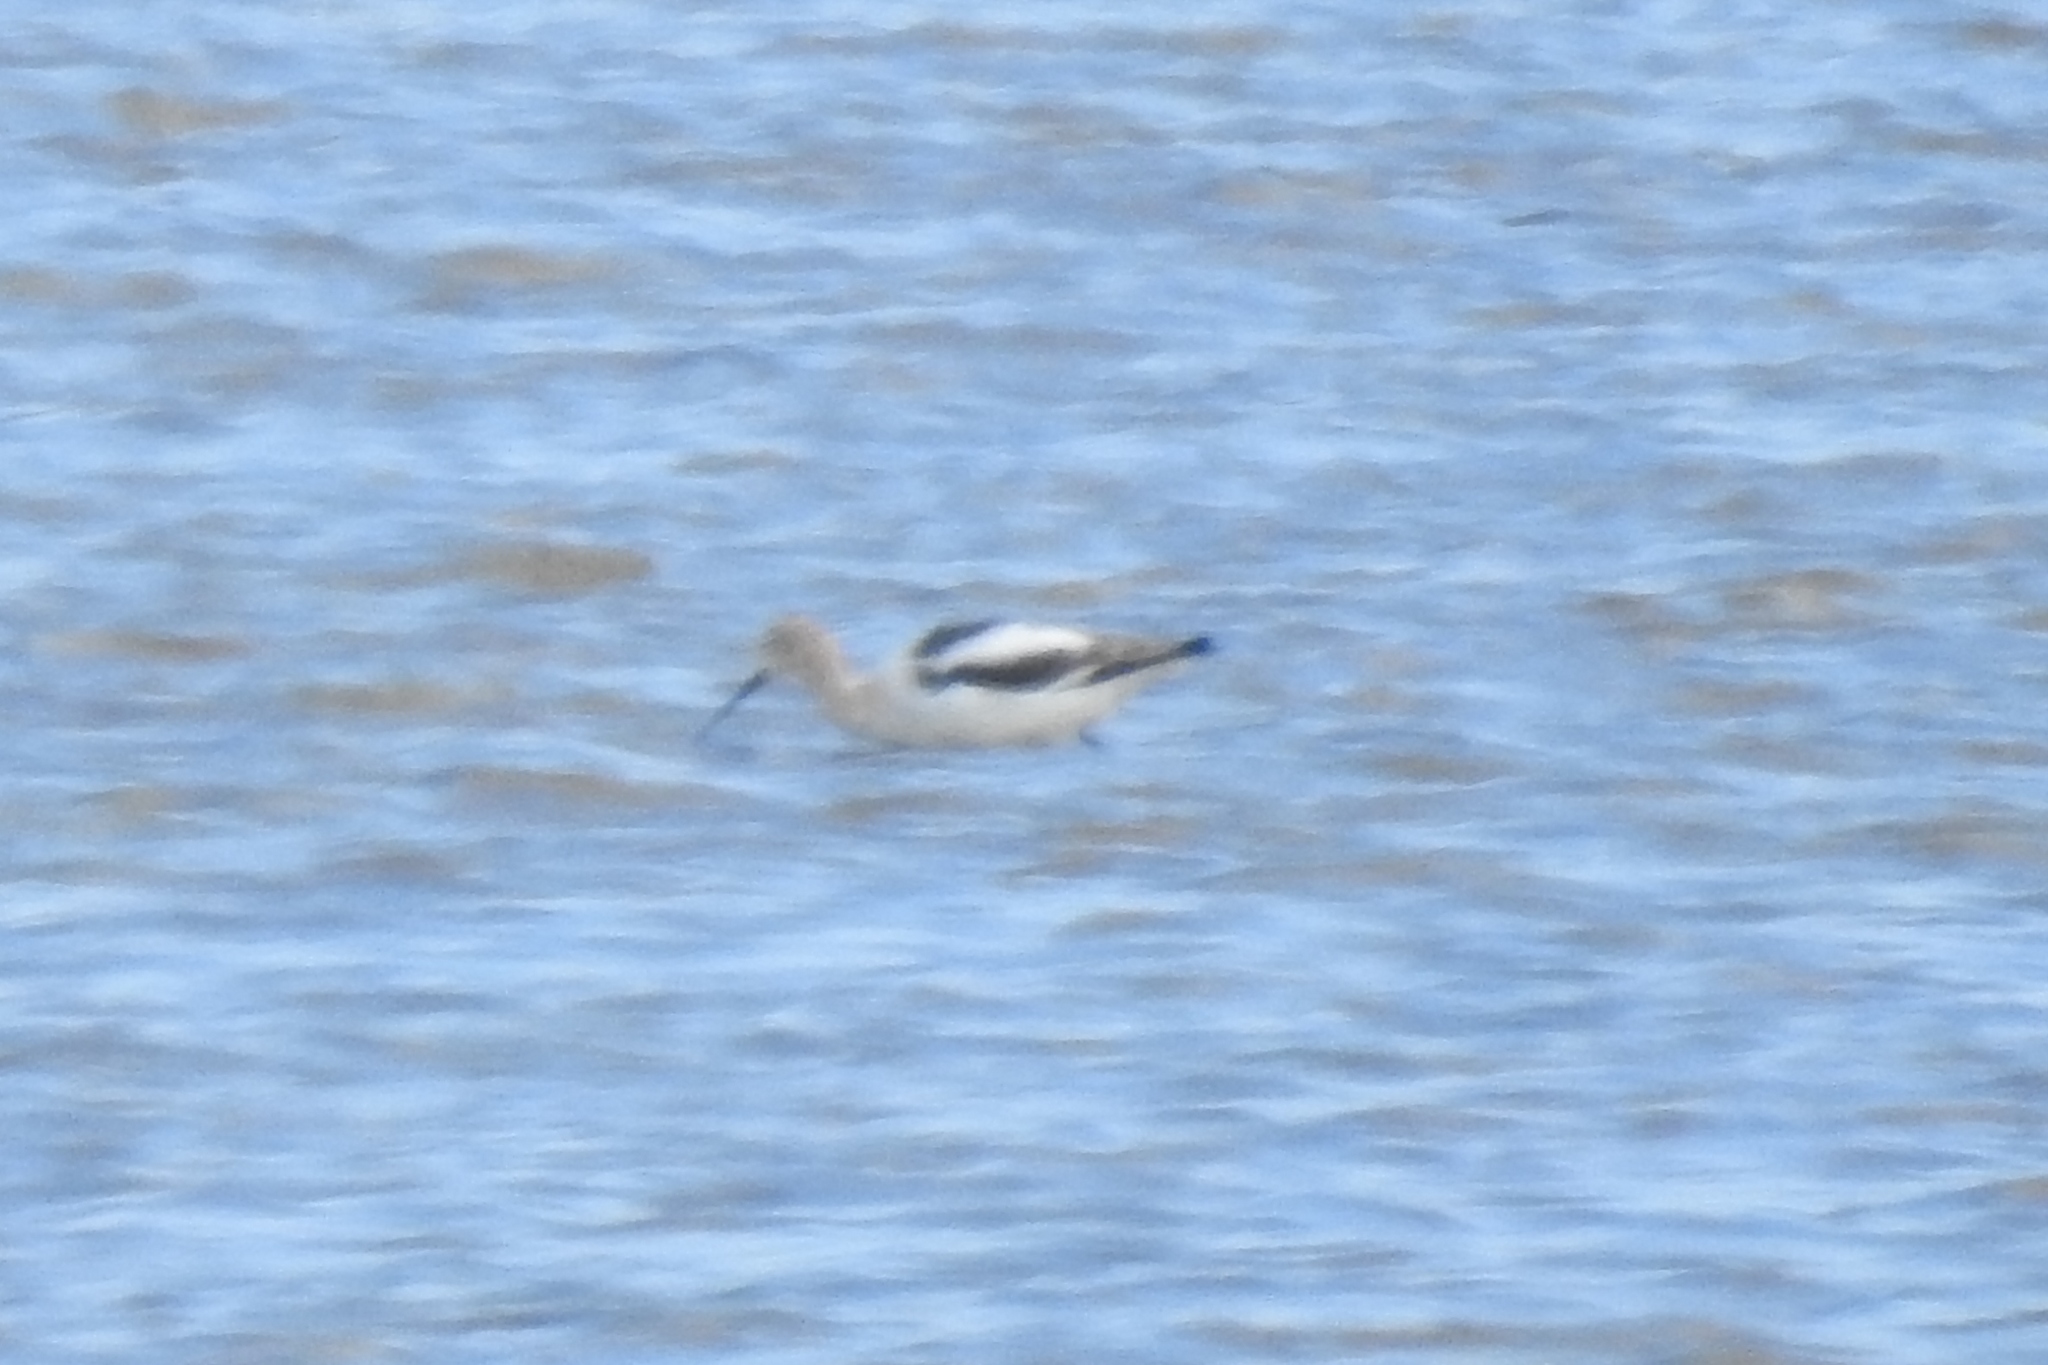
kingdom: Animalia
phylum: Chordata
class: Aves
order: Charadriiformes
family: Recurvirostridae
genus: Recurvirostra
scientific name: Recurvirostra americana
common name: American avocet
